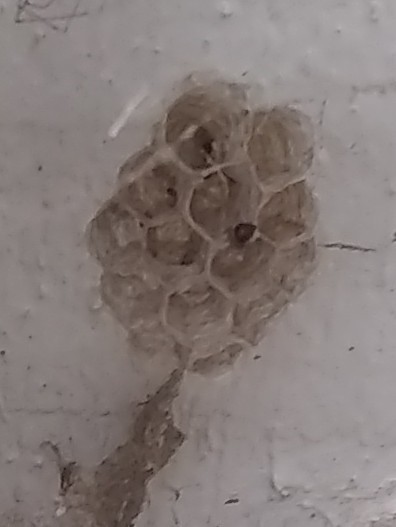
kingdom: Animalia
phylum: Arthropoda
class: Insecta
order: Hymenoptera
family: Vespidae
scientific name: Vespidae
